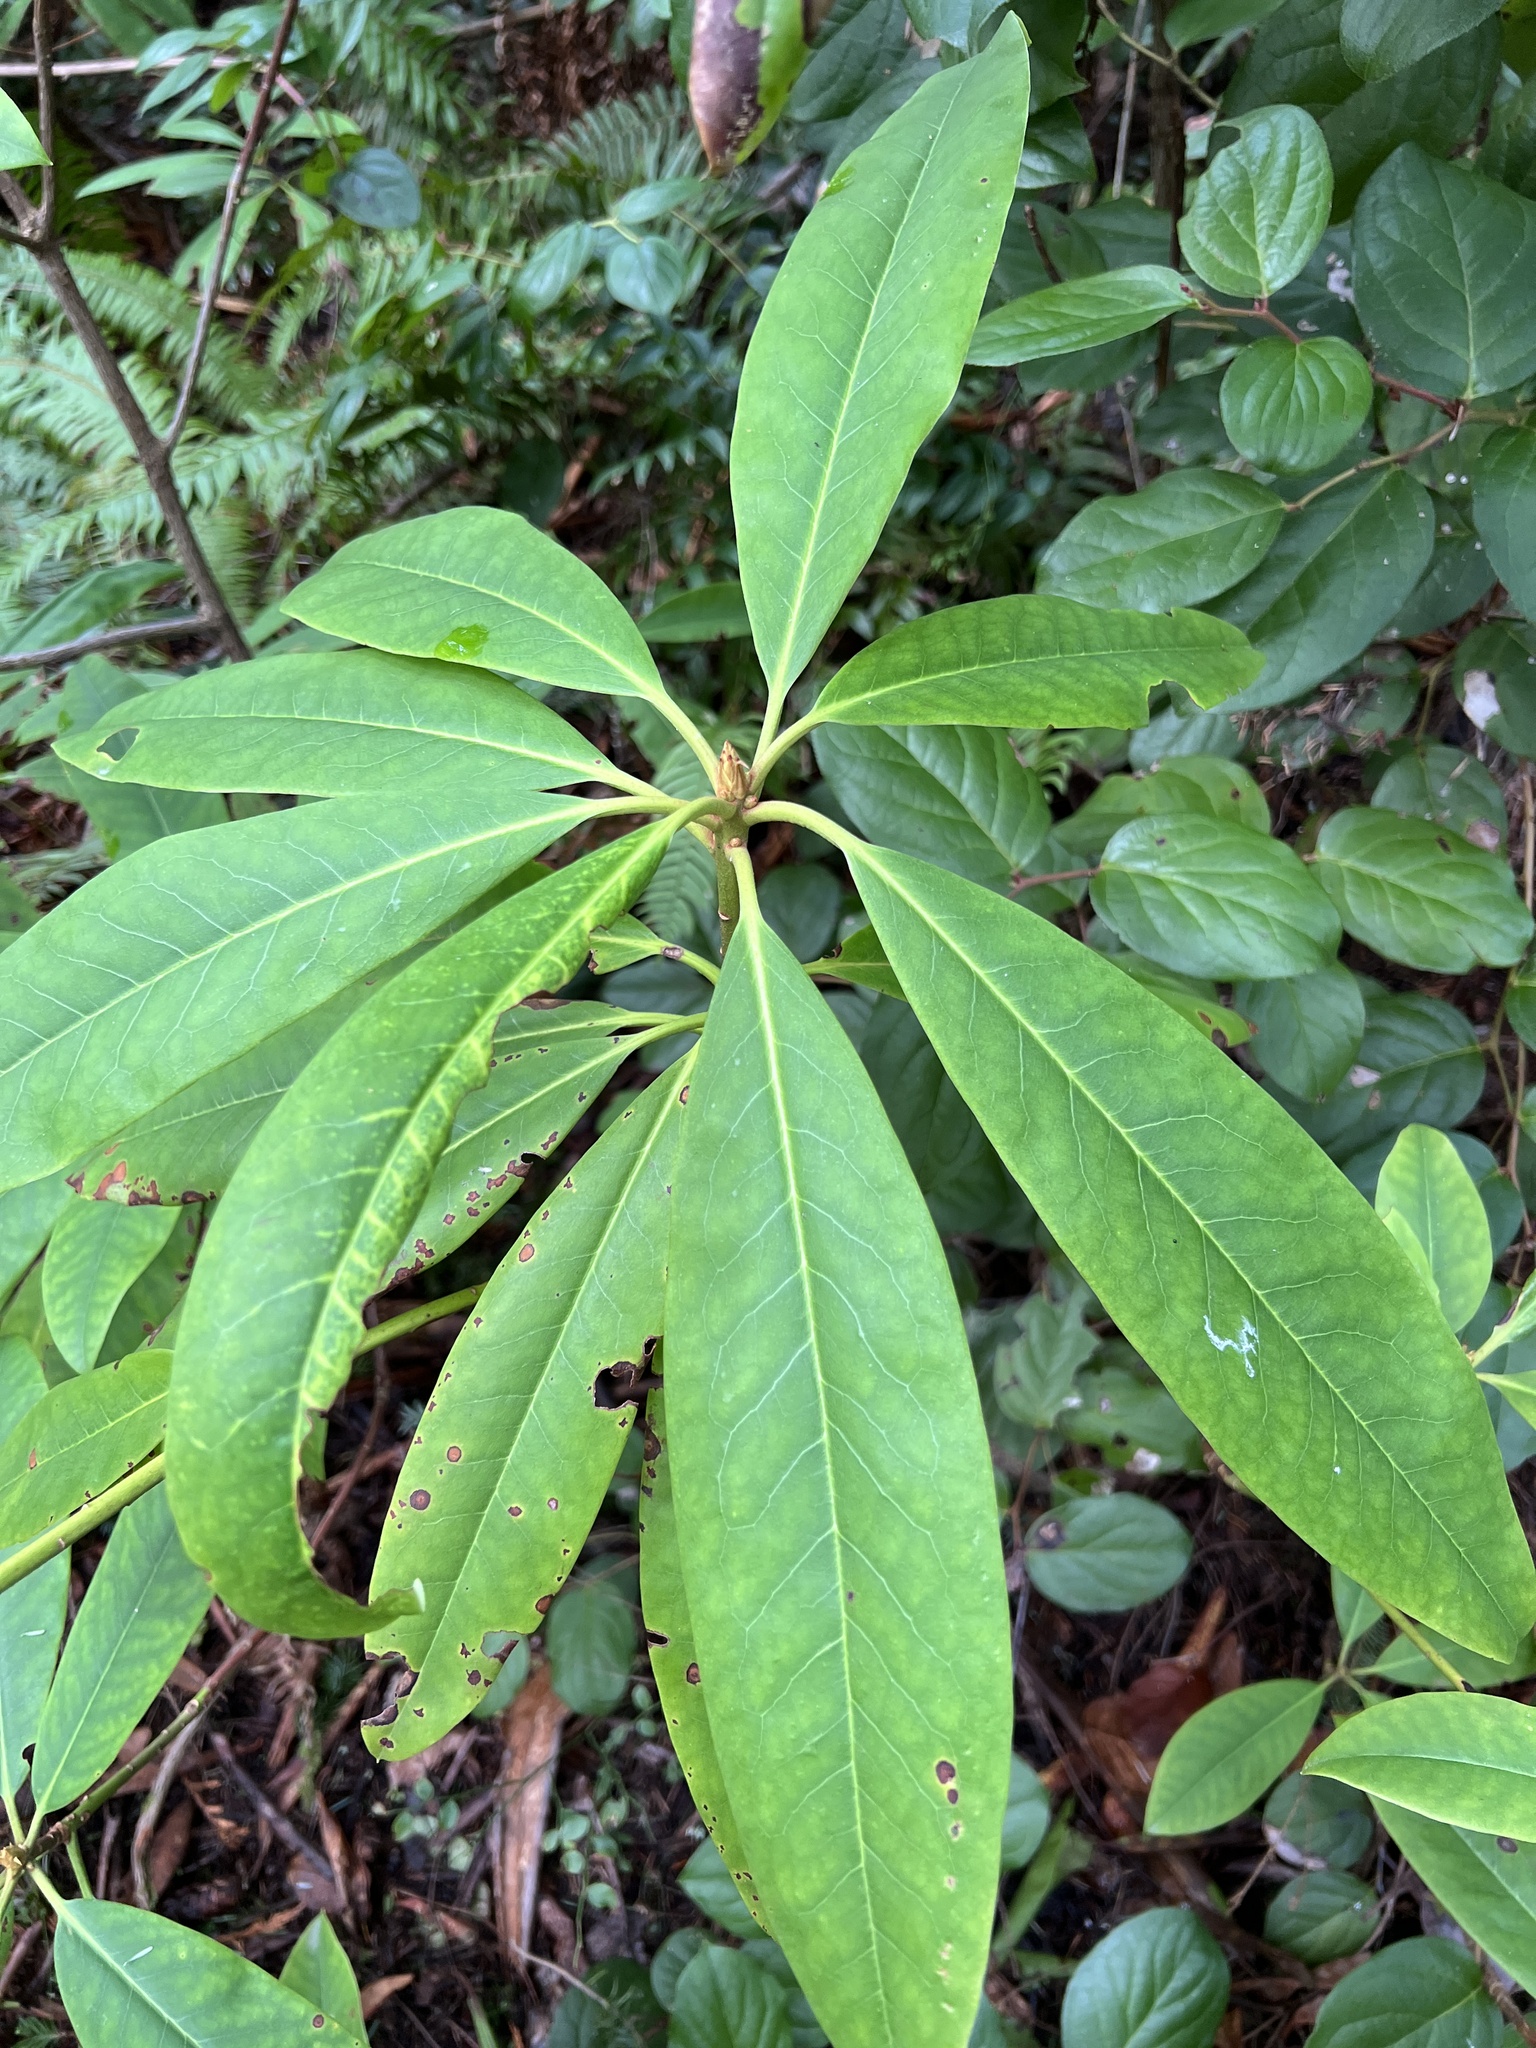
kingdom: Plantae
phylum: Tracheophyta
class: Magnoliopsida
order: Ericales
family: Ericaceae
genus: Rhododendron
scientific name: Rhododendron macrophyllum
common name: California rose bay
